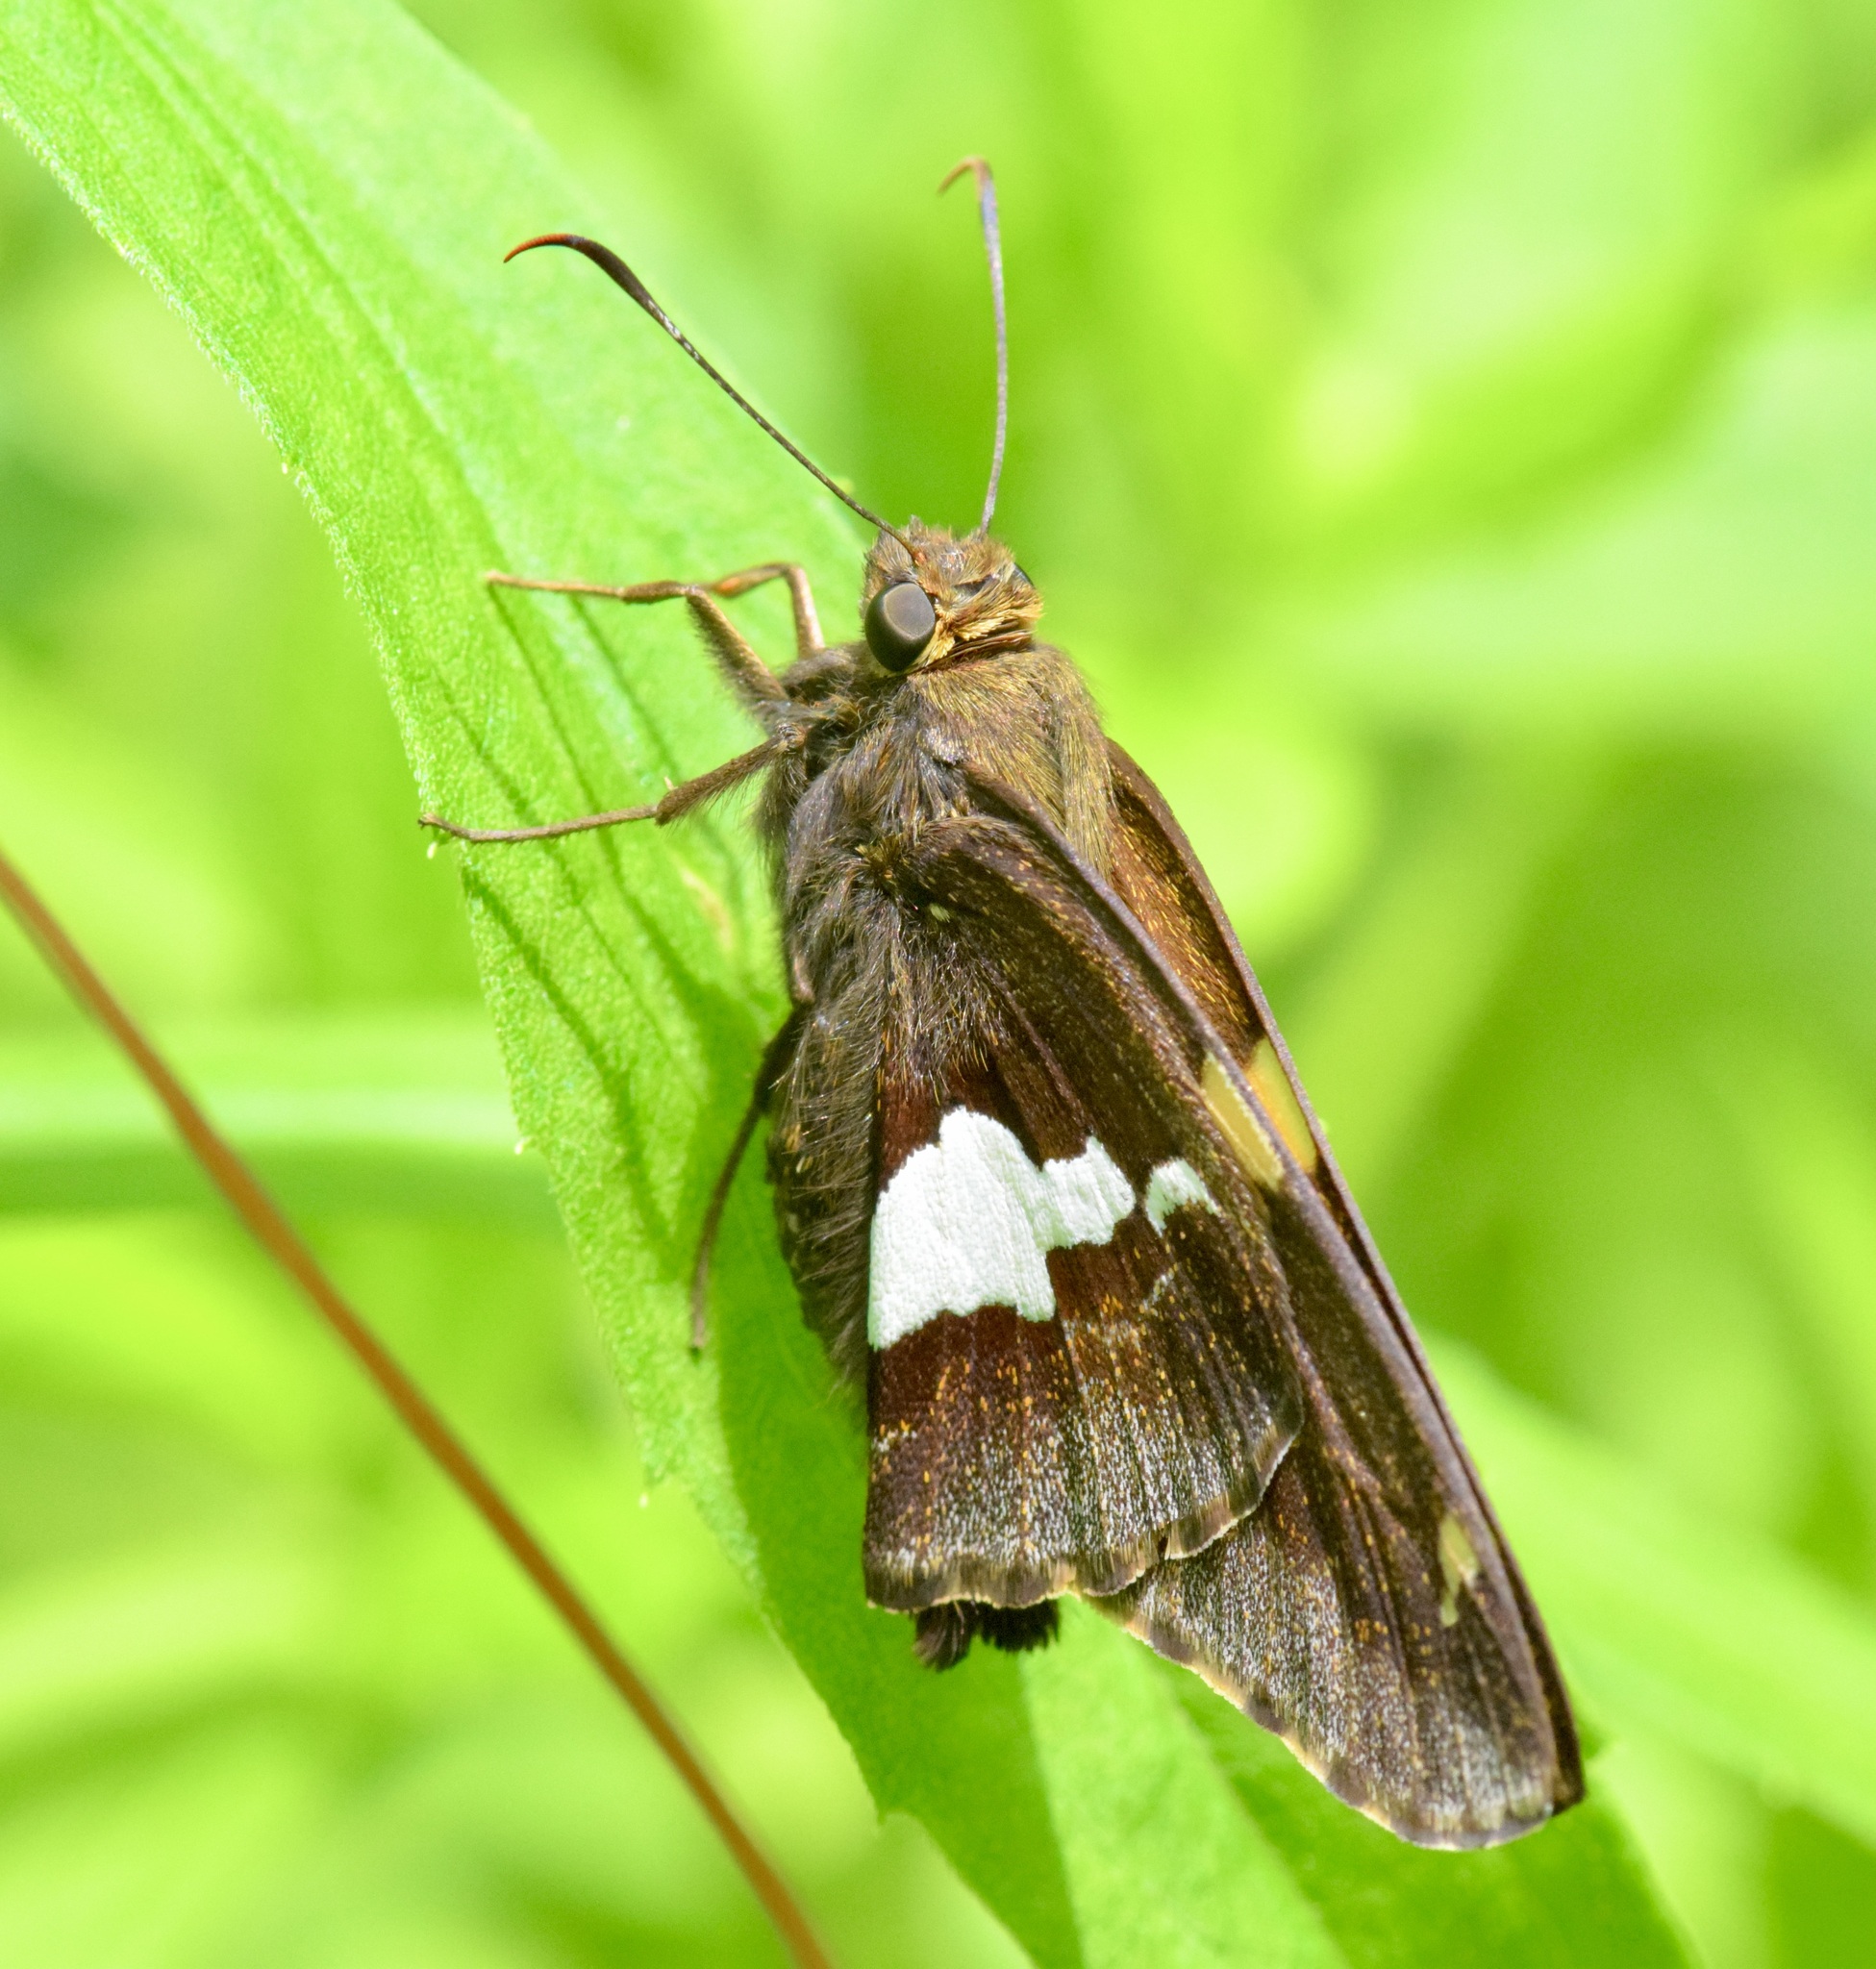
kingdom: Animalia
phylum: Arthropoda
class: Insecta
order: Lepidoptera
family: Hesperiidae
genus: Epargyreus
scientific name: Epargyreus clarus
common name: Silver-spotted skipper
